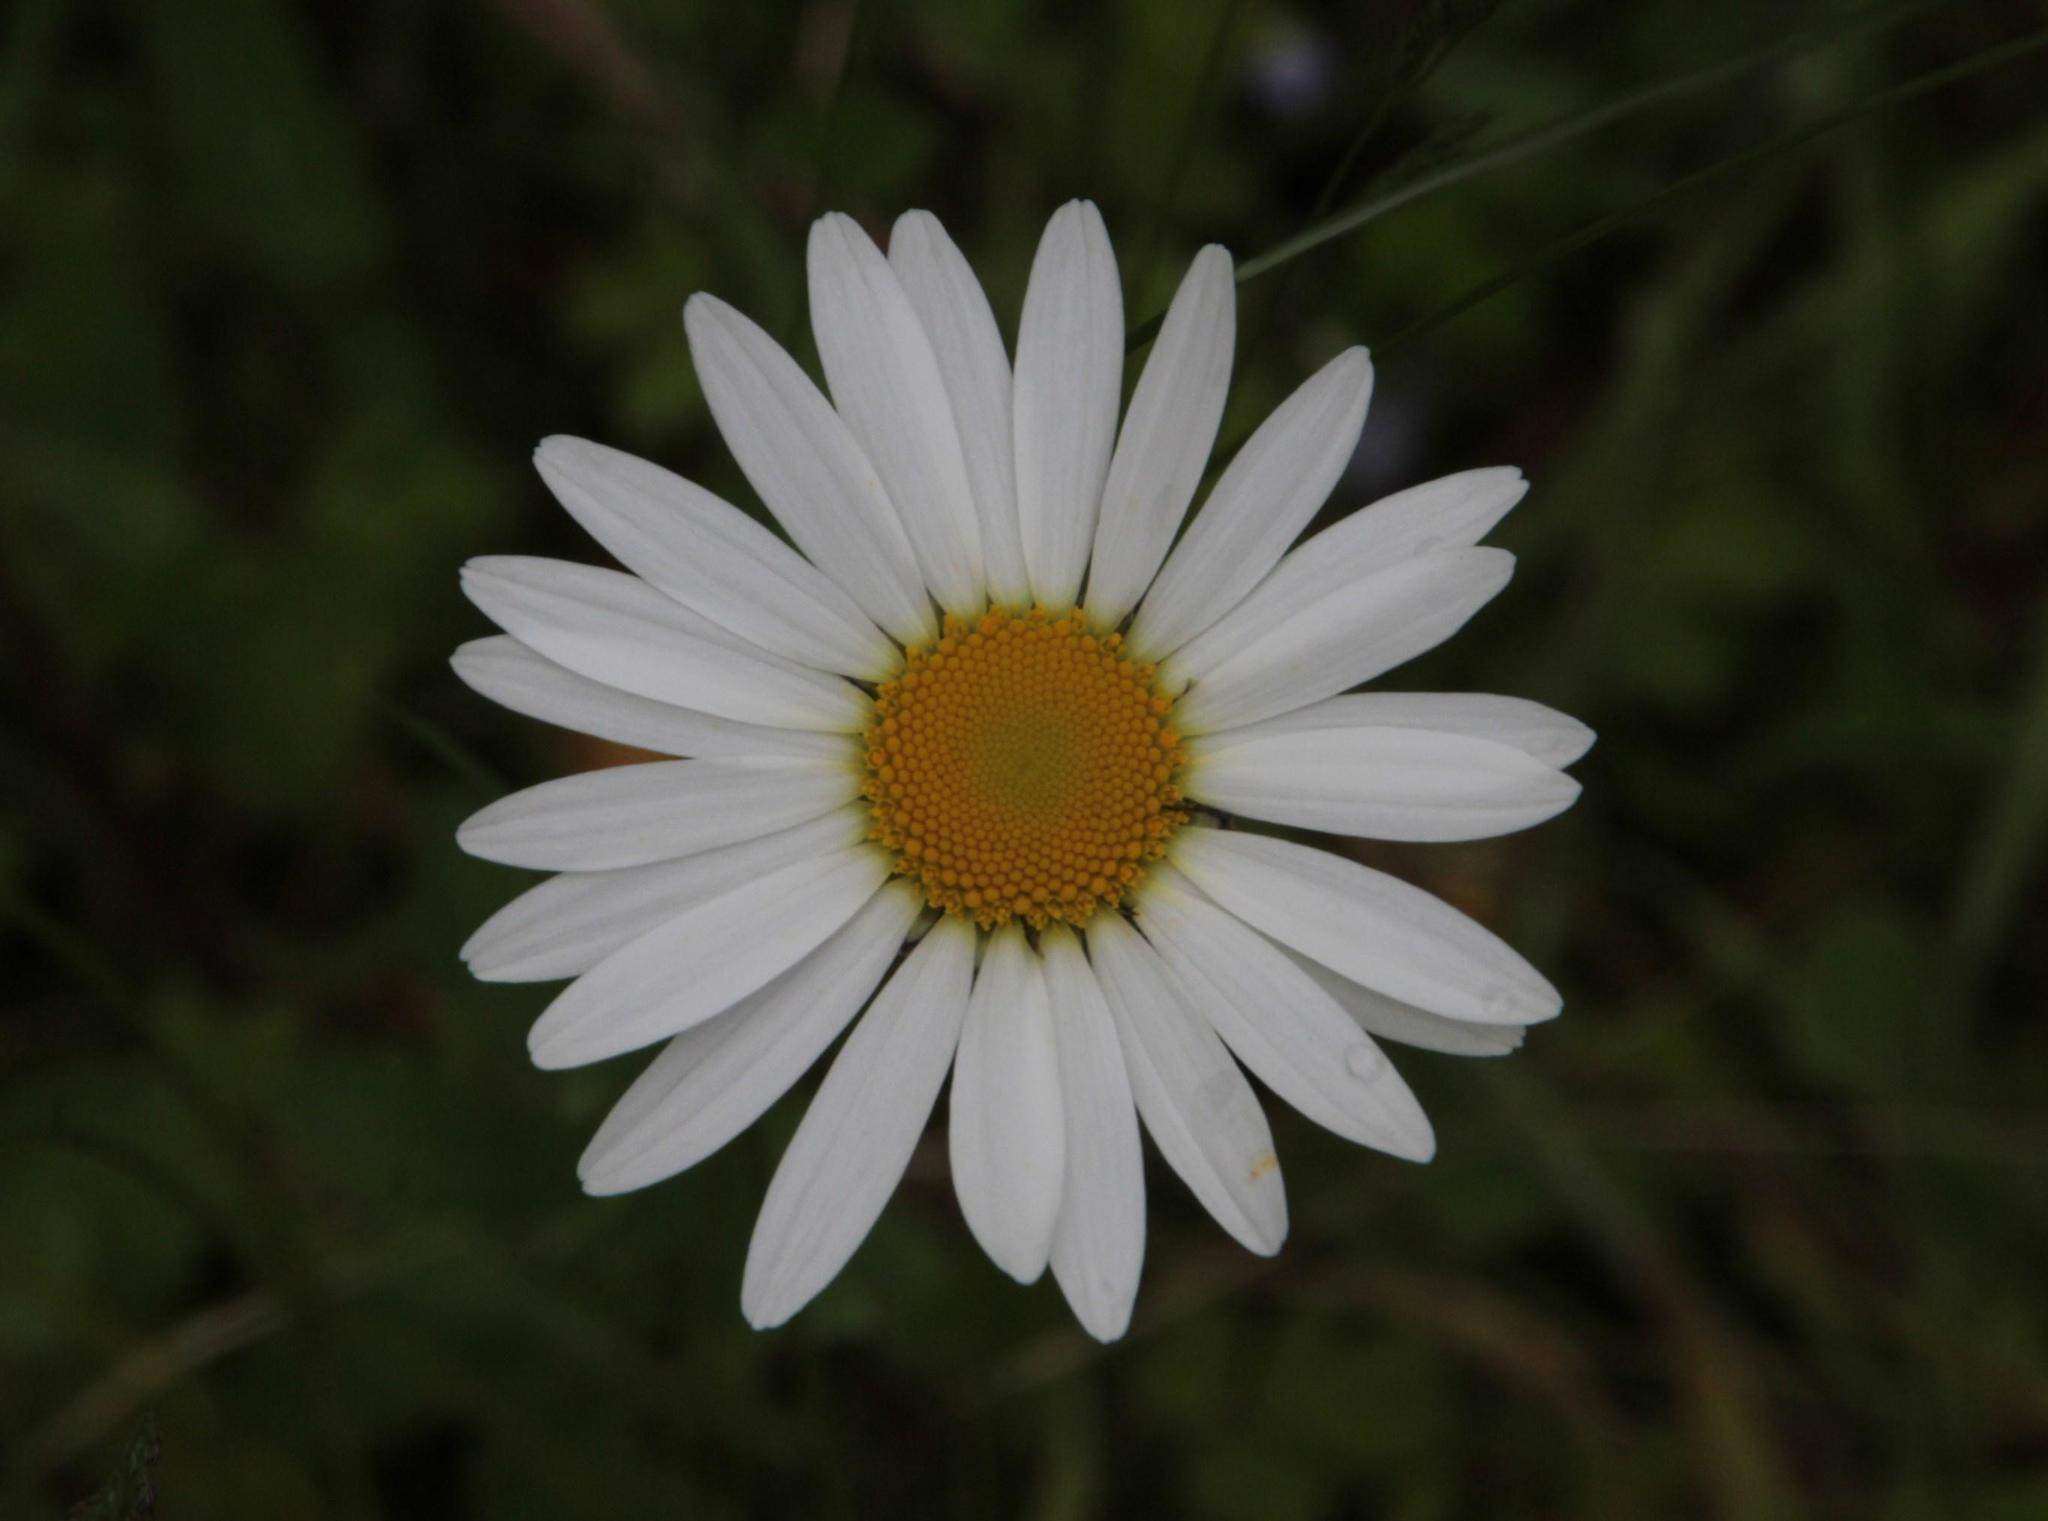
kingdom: Plantae
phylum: Tracheophyta
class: Magnoliopsida
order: Asterales
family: Asteraceae
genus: Leucanthemum
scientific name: Leucanthemum vulgare
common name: Oxeye daisy
